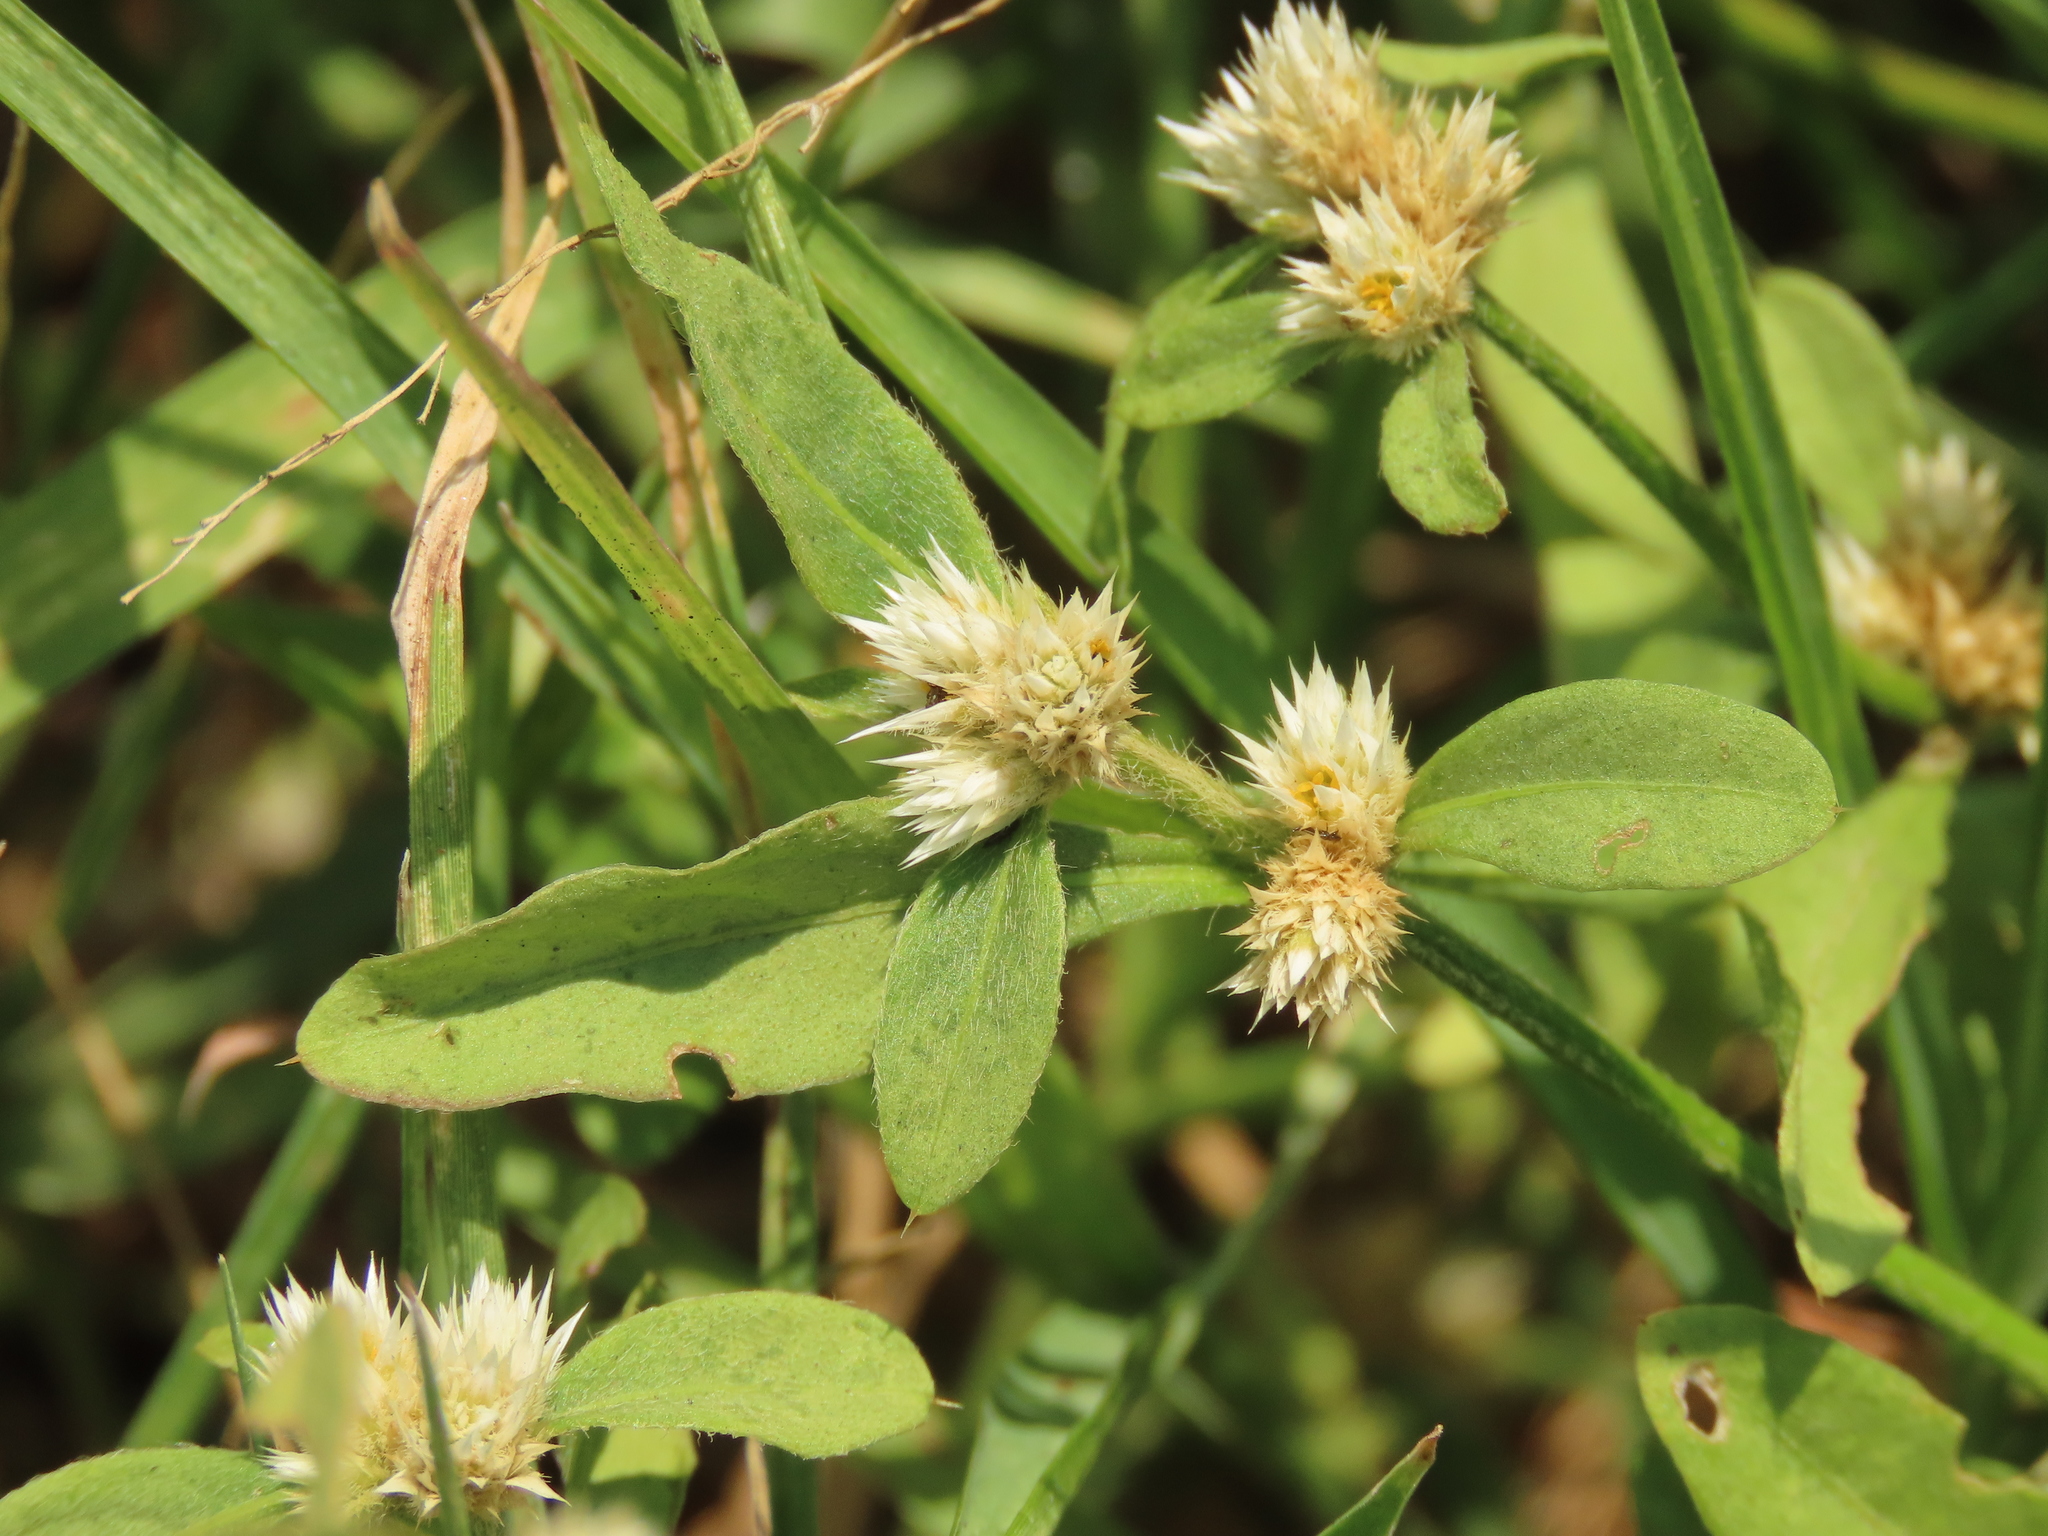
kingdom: Plantae
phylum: Tracheophyta
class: Magnoliopsida
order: Caryophyllales
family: Amaranthaceae
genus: Alternanthera
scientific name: Alternanthera bettzickiana
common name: Calico-plant
